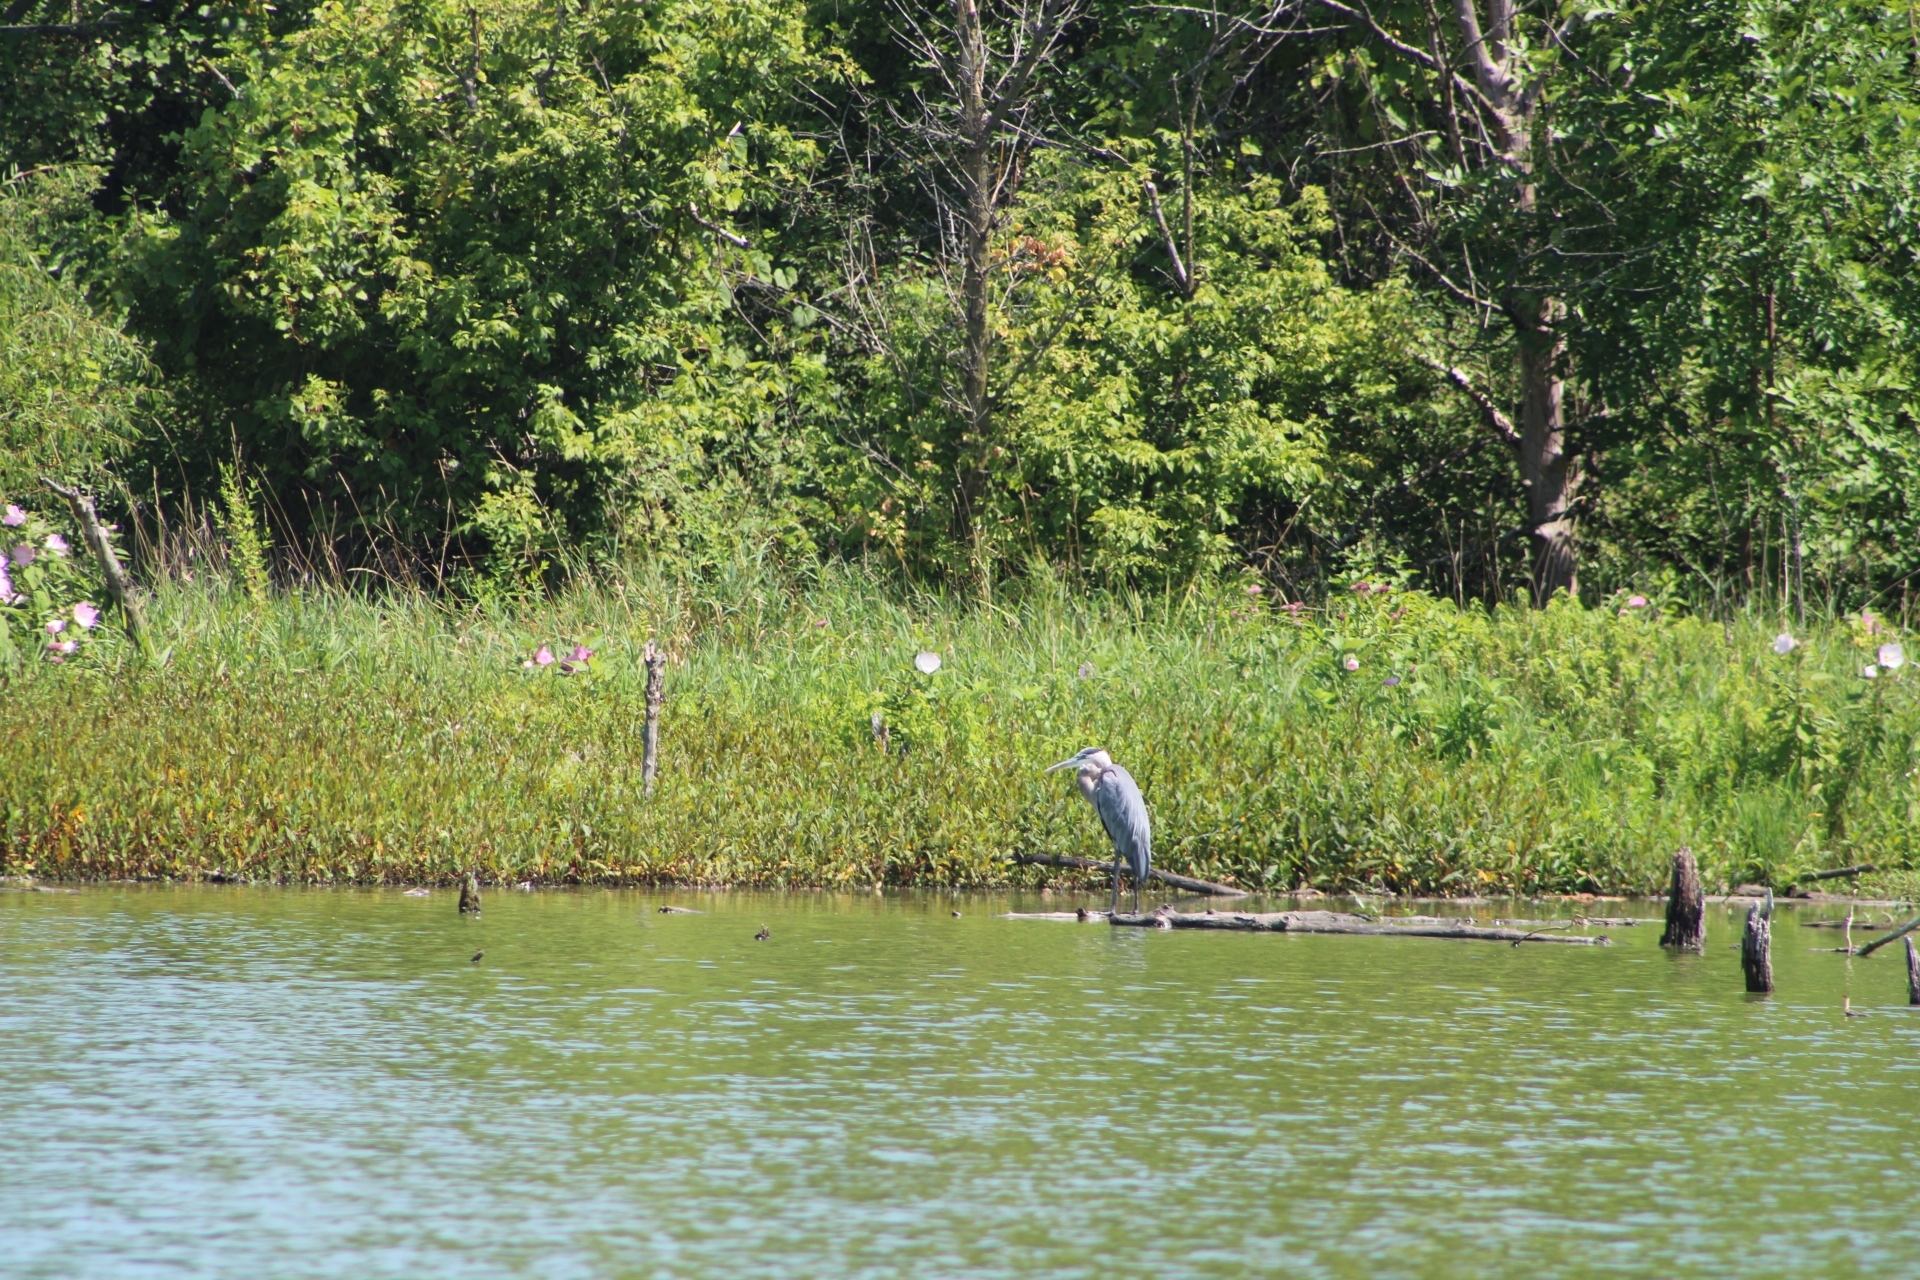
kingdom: Animalia
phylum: Chordata
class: Aves
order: Pelecaniformes
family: Ardeidae
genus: Ardea
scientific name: Ardea herodias
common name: Great blue heron
